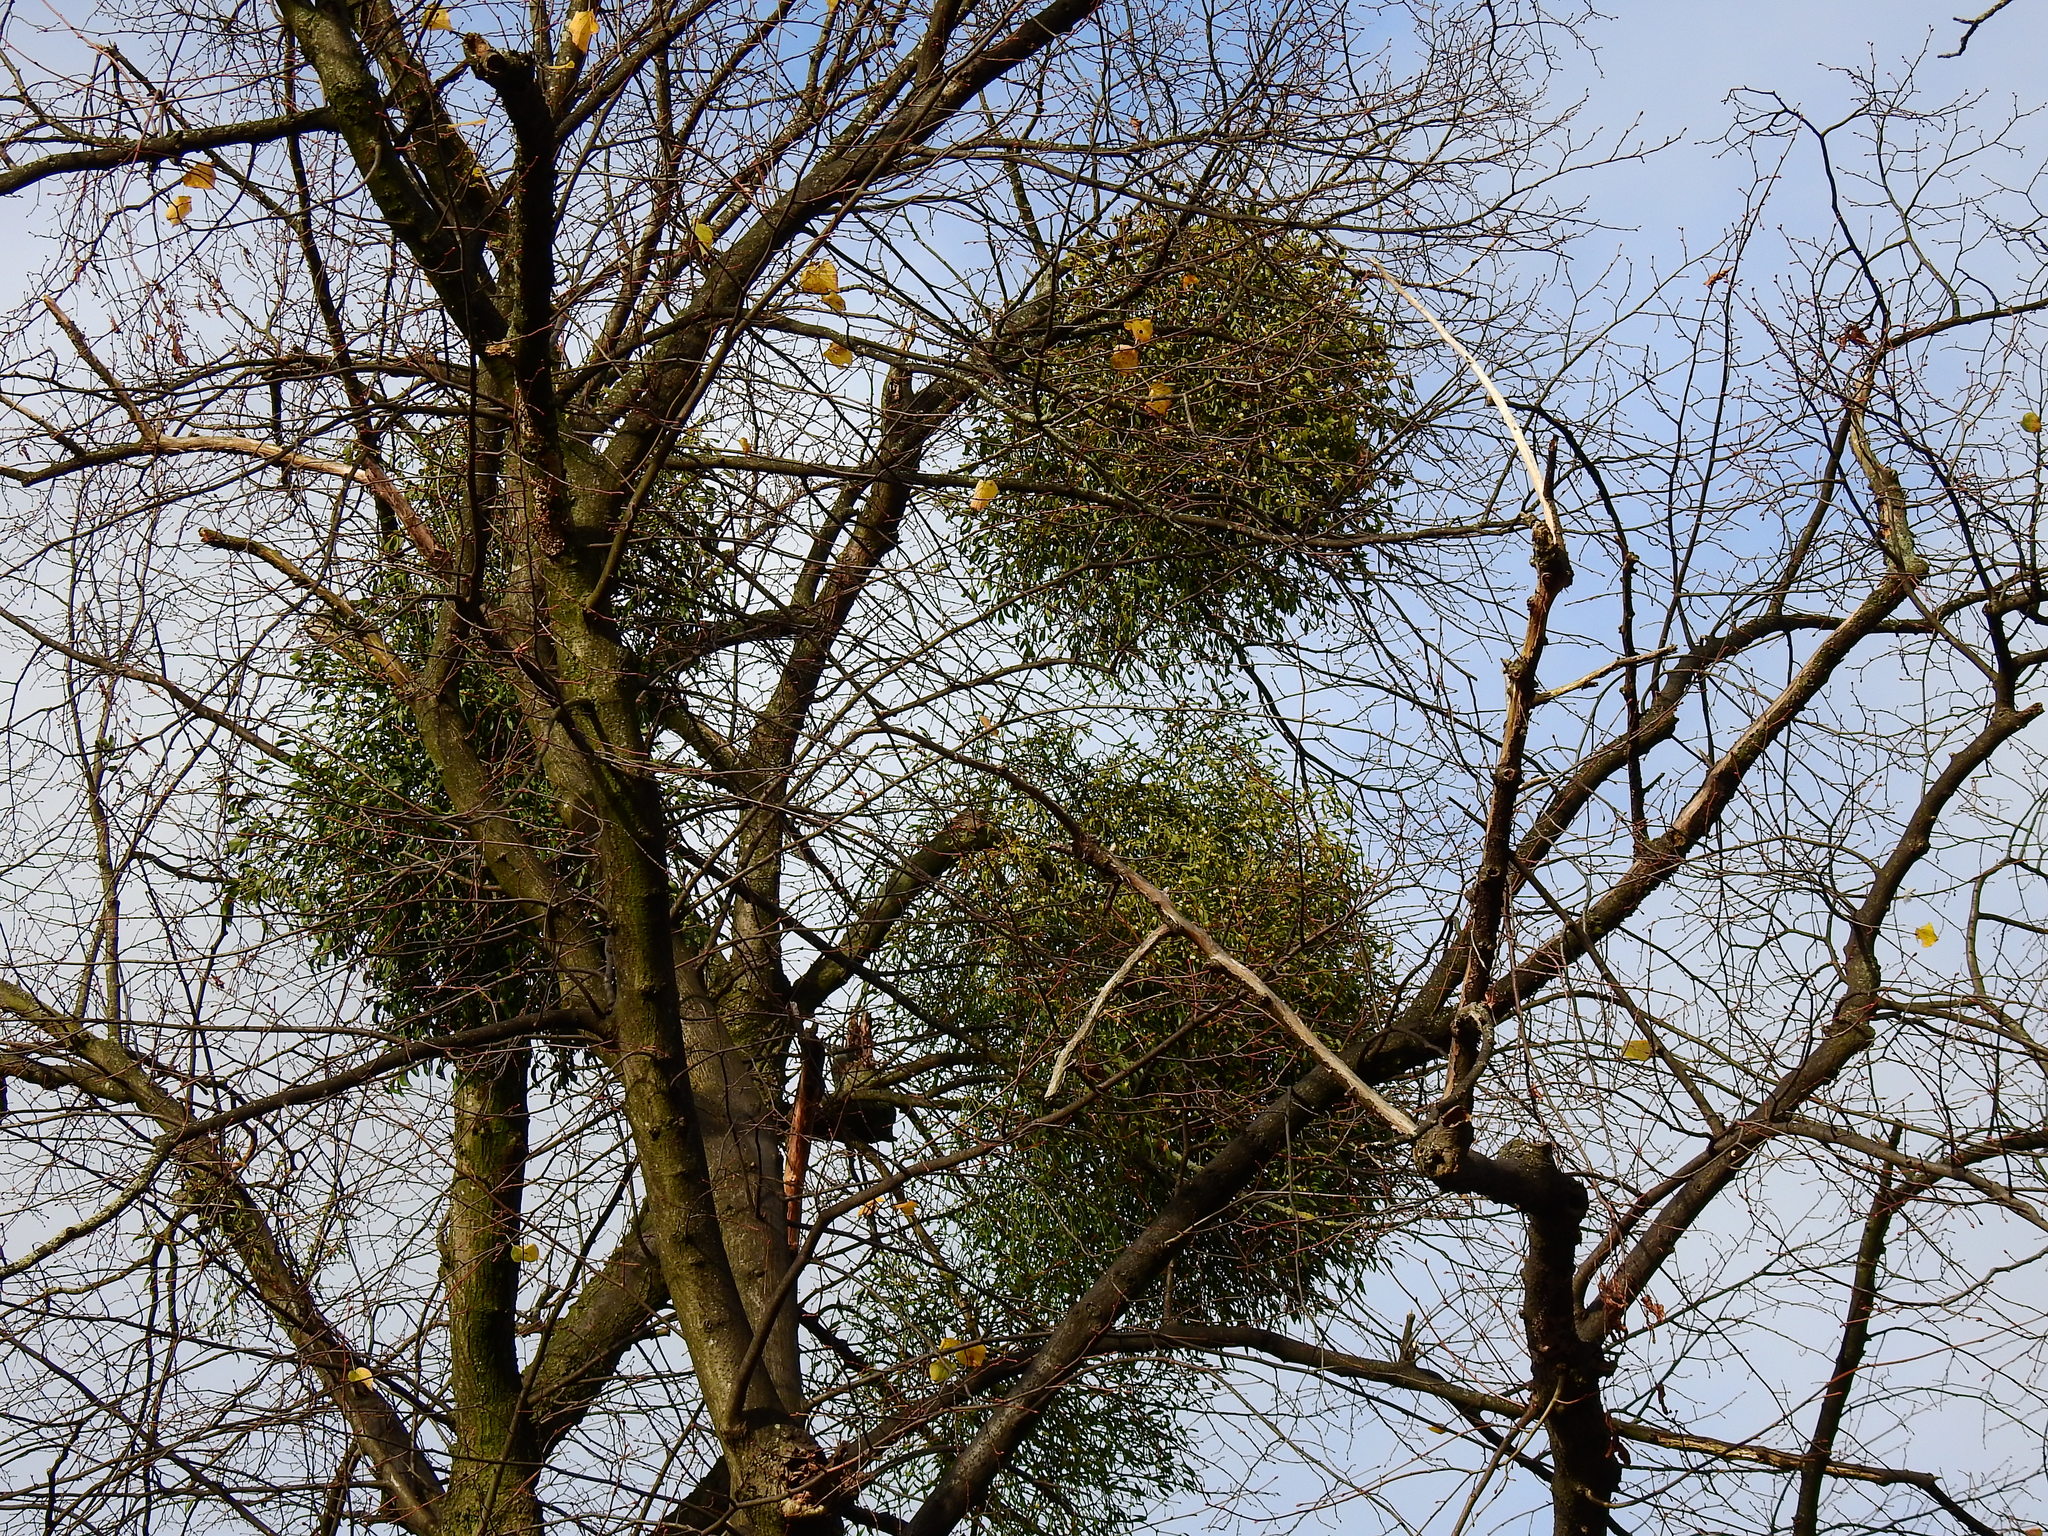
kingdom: Plantae
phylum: Tracheophyta
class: Magnoliopsida
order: Santalales
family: Viscaceae
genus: Viscum
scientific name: Viscum album
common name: Mistletoe
